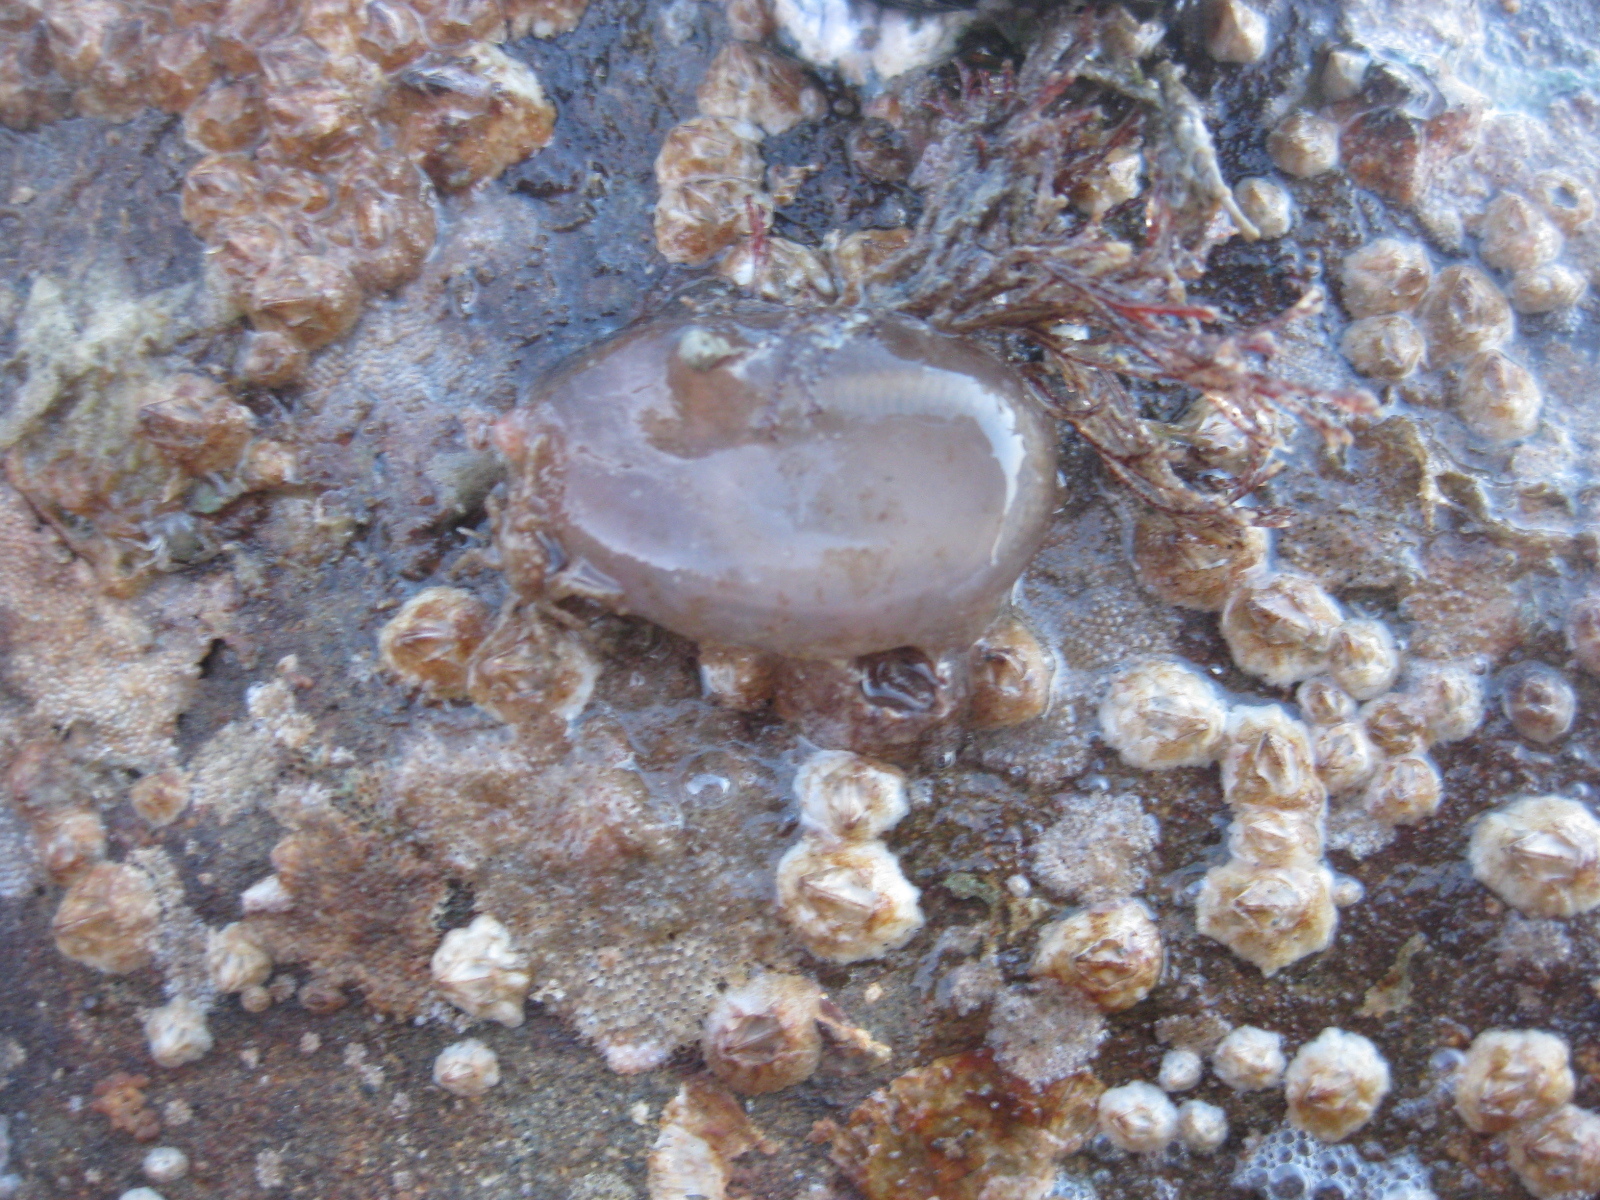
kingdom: Animalia
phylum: Chordata
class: Ascidiacea
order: Phlebobranchia
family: Corellidae
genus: Corella
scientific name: Corella eumyota
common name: Orange-tipped sea squirt
